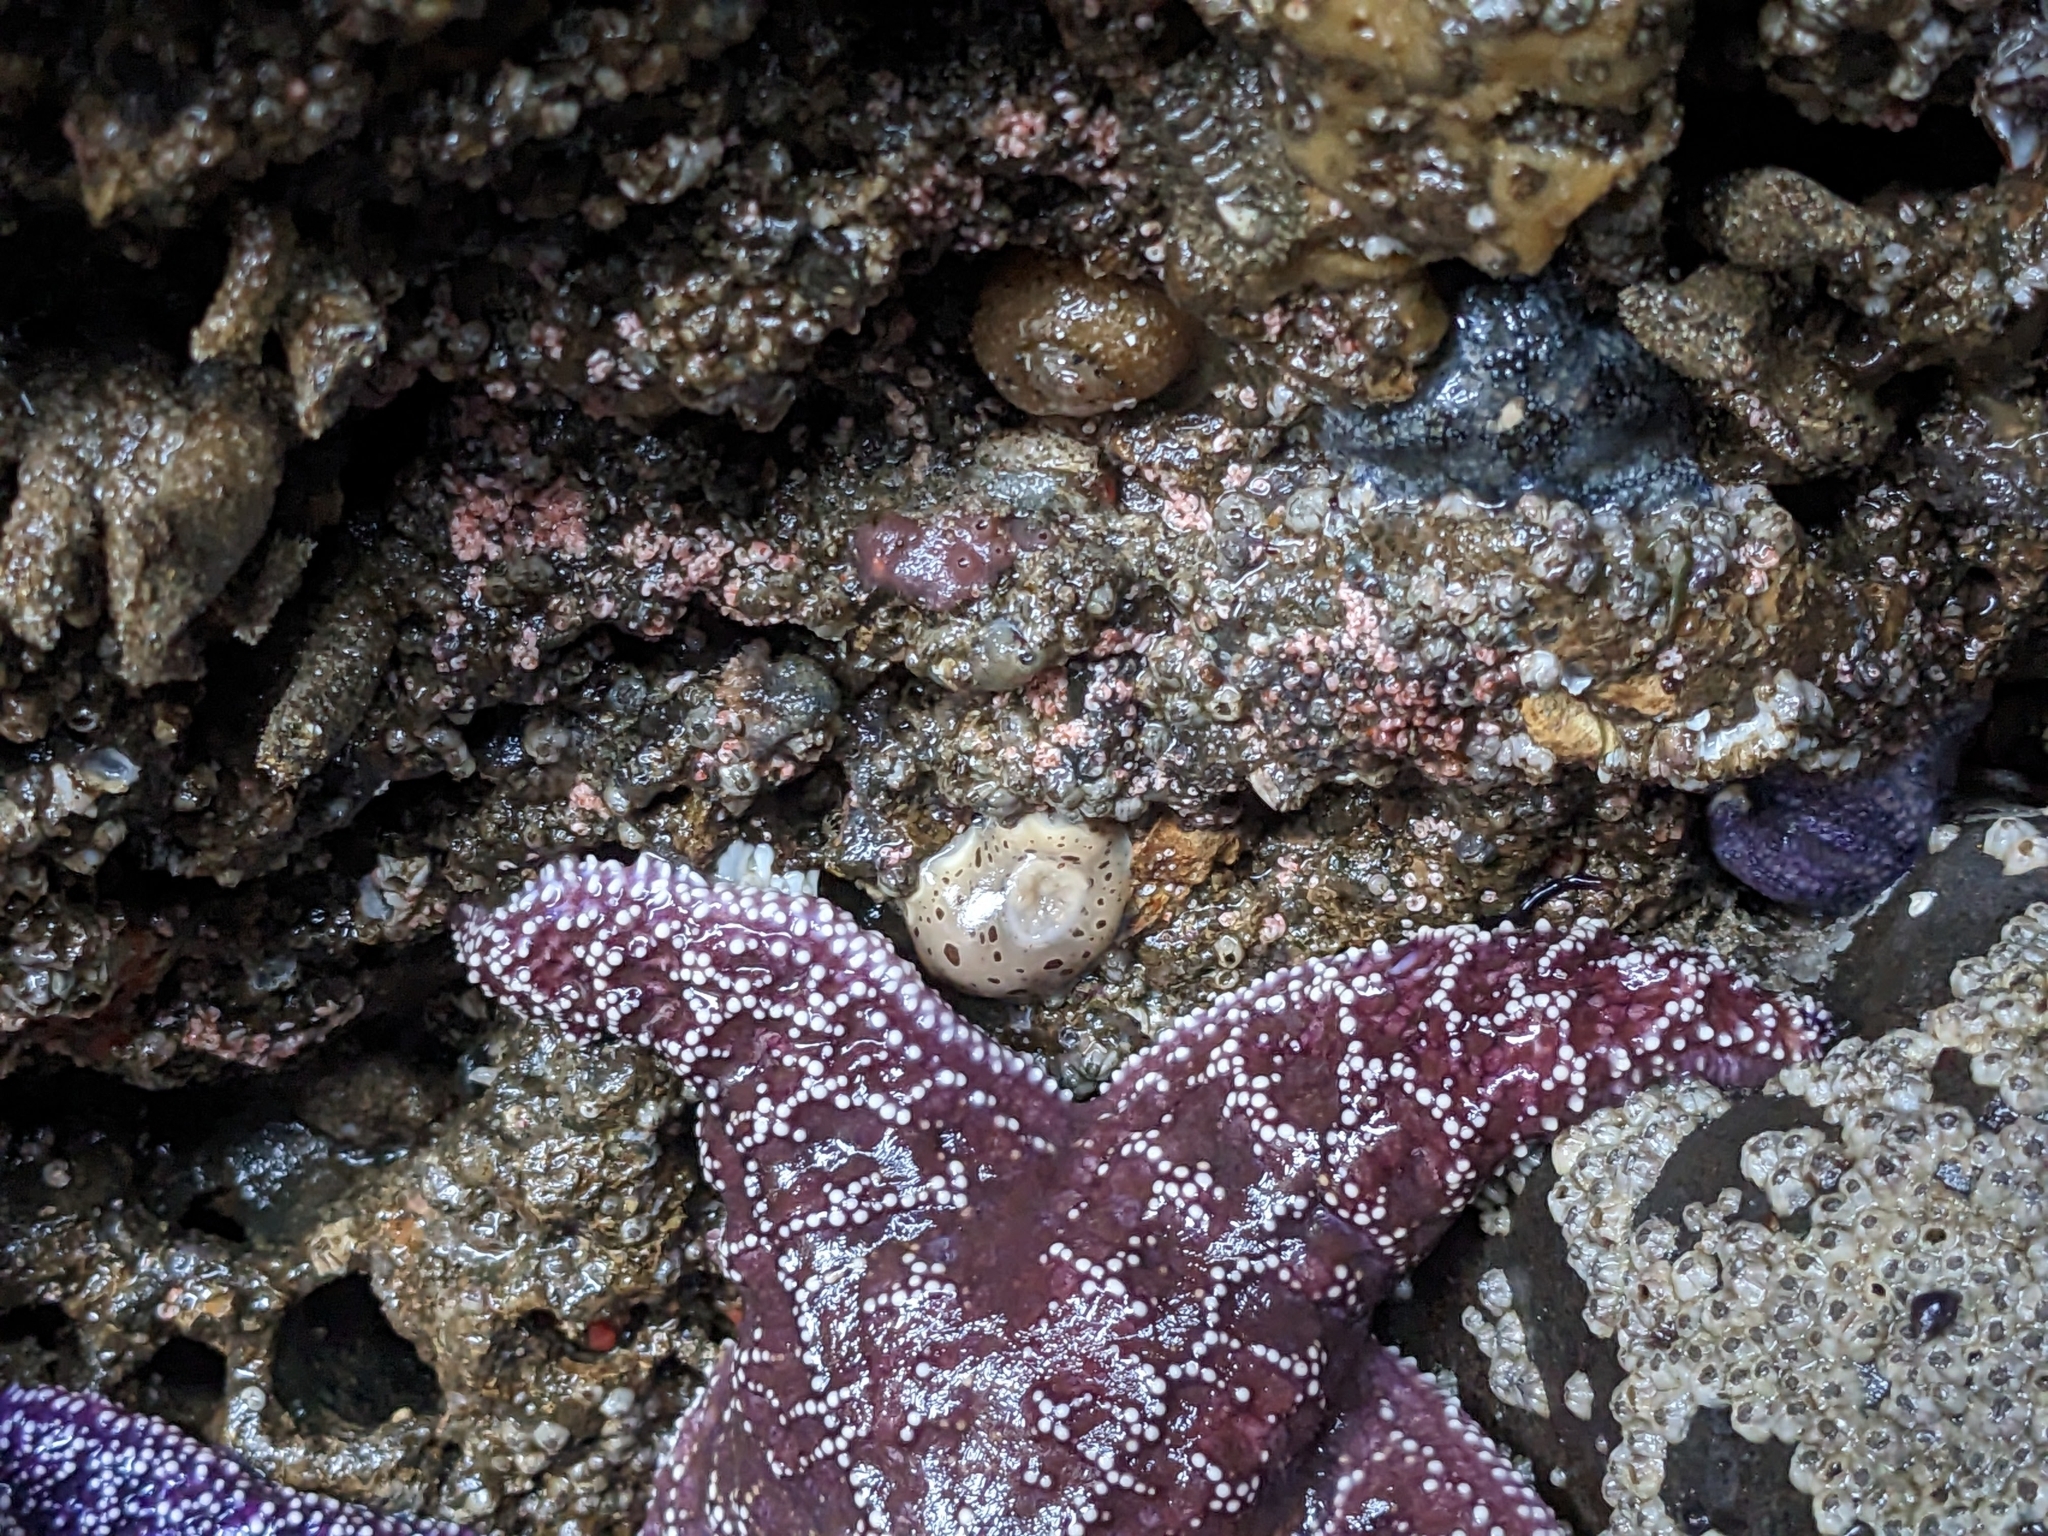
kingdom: Animalia
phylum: Mollusca
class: Gastropoda
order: Nudibranchia
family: Discodorididae
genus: Diaulula
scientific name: Diaulula odonoghuei
